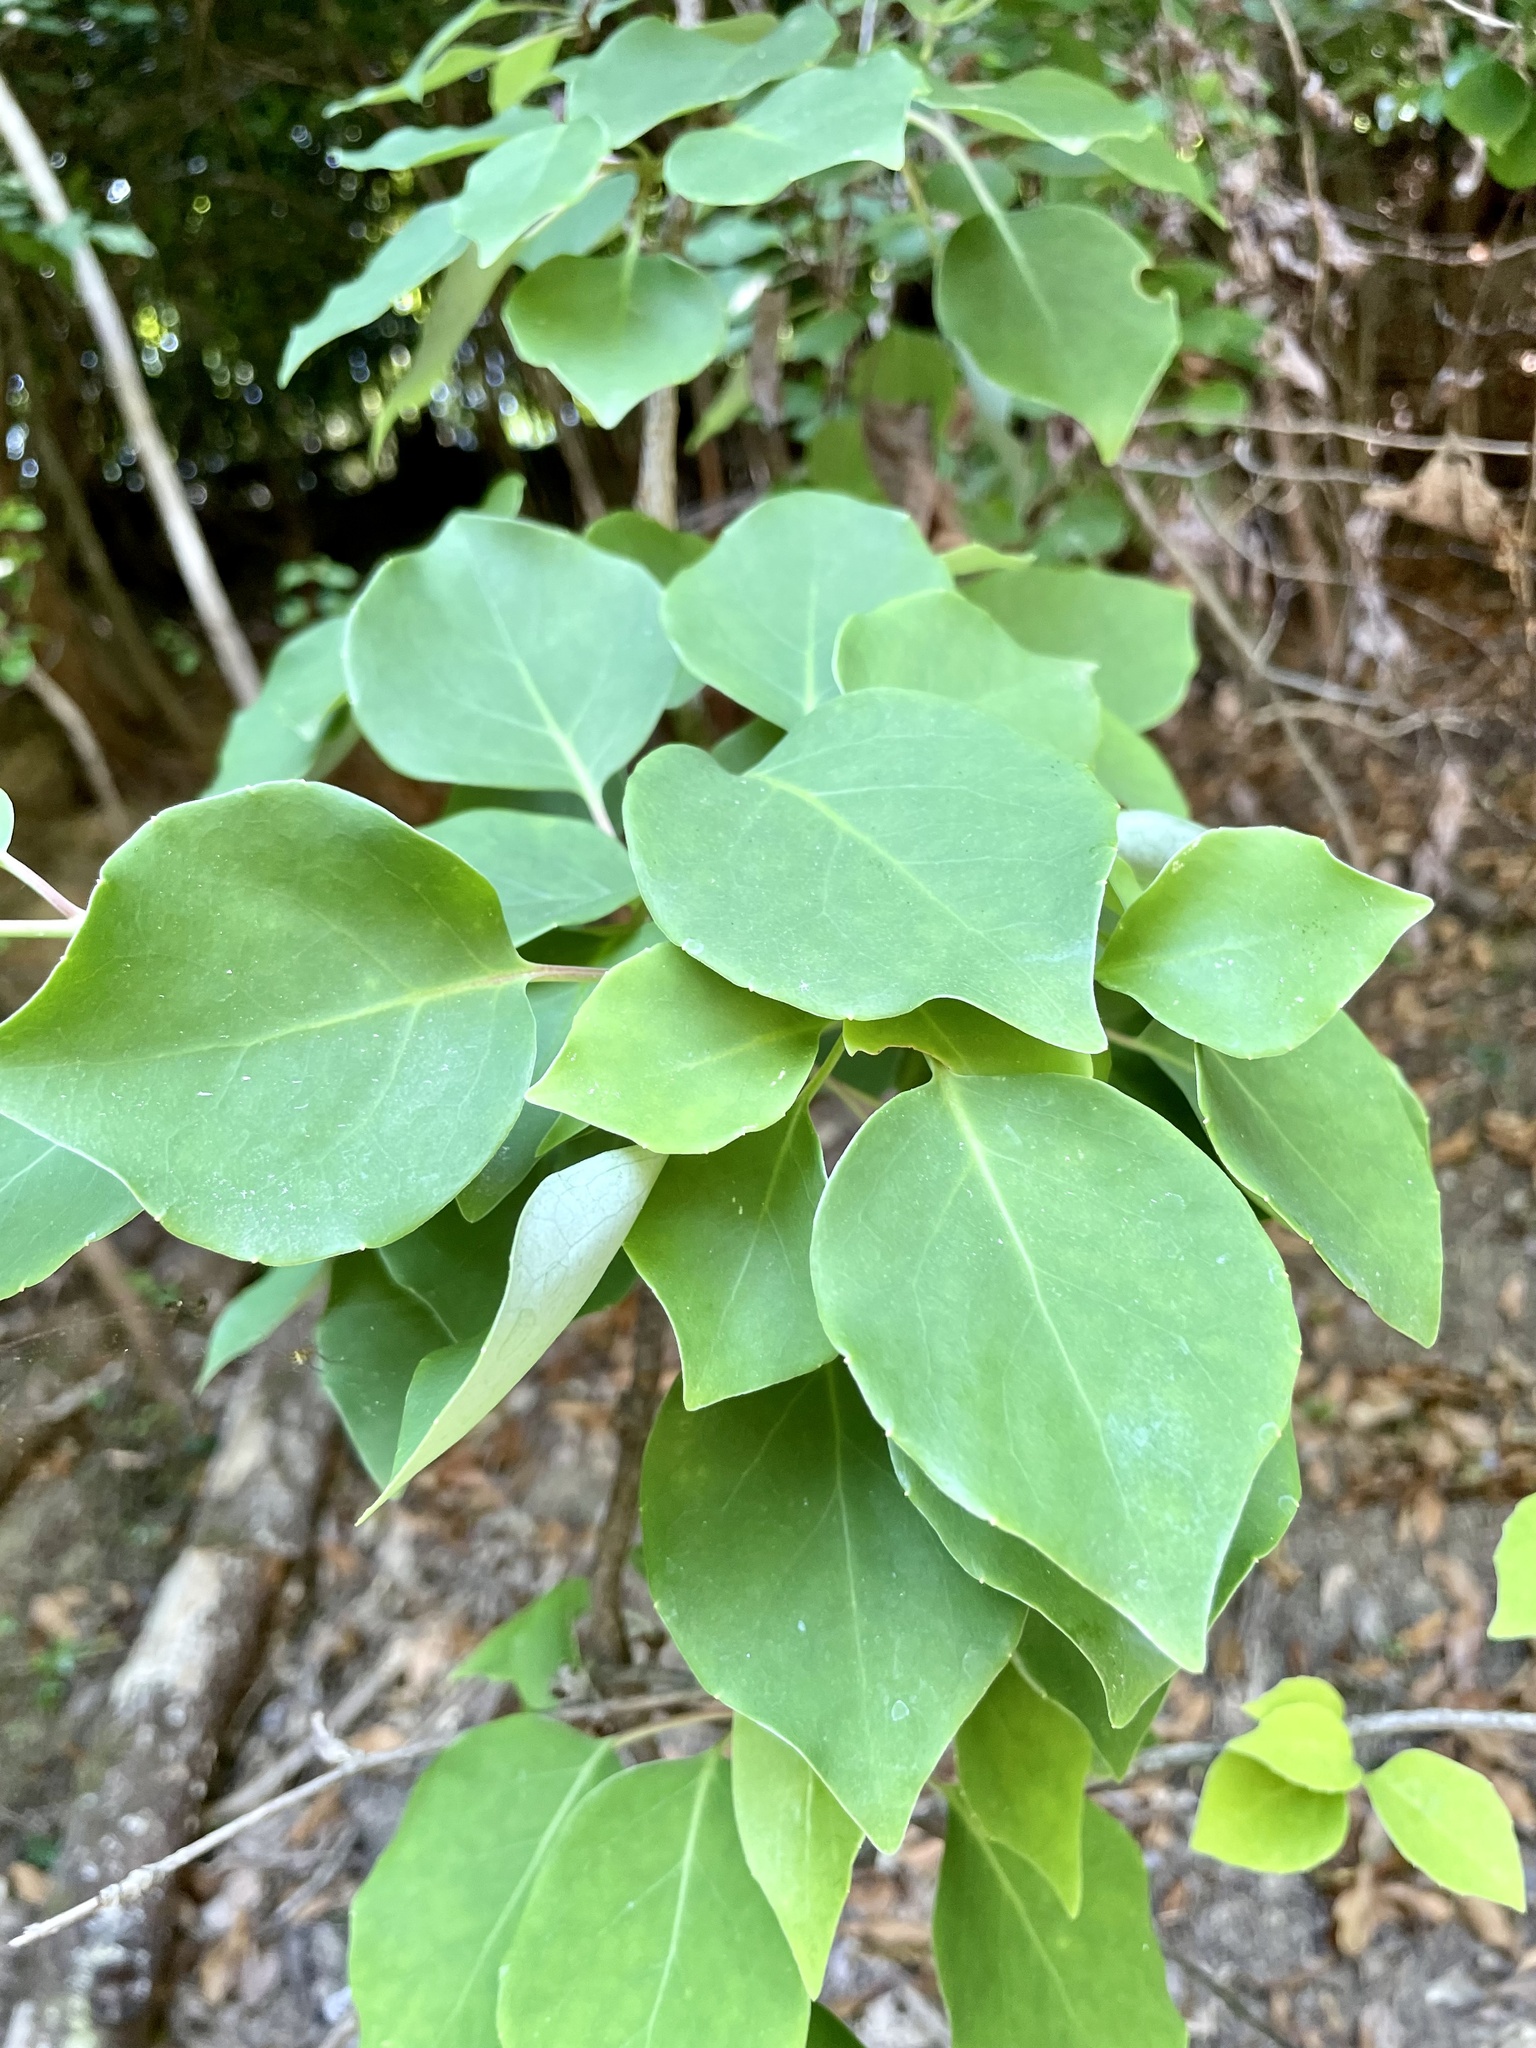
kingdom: Plantae
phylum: Tracheophyta
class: Magnoliopsida
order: Austrobaileyales
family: Schisandraceae
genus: Schisandra
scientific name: Schisandra repanda
